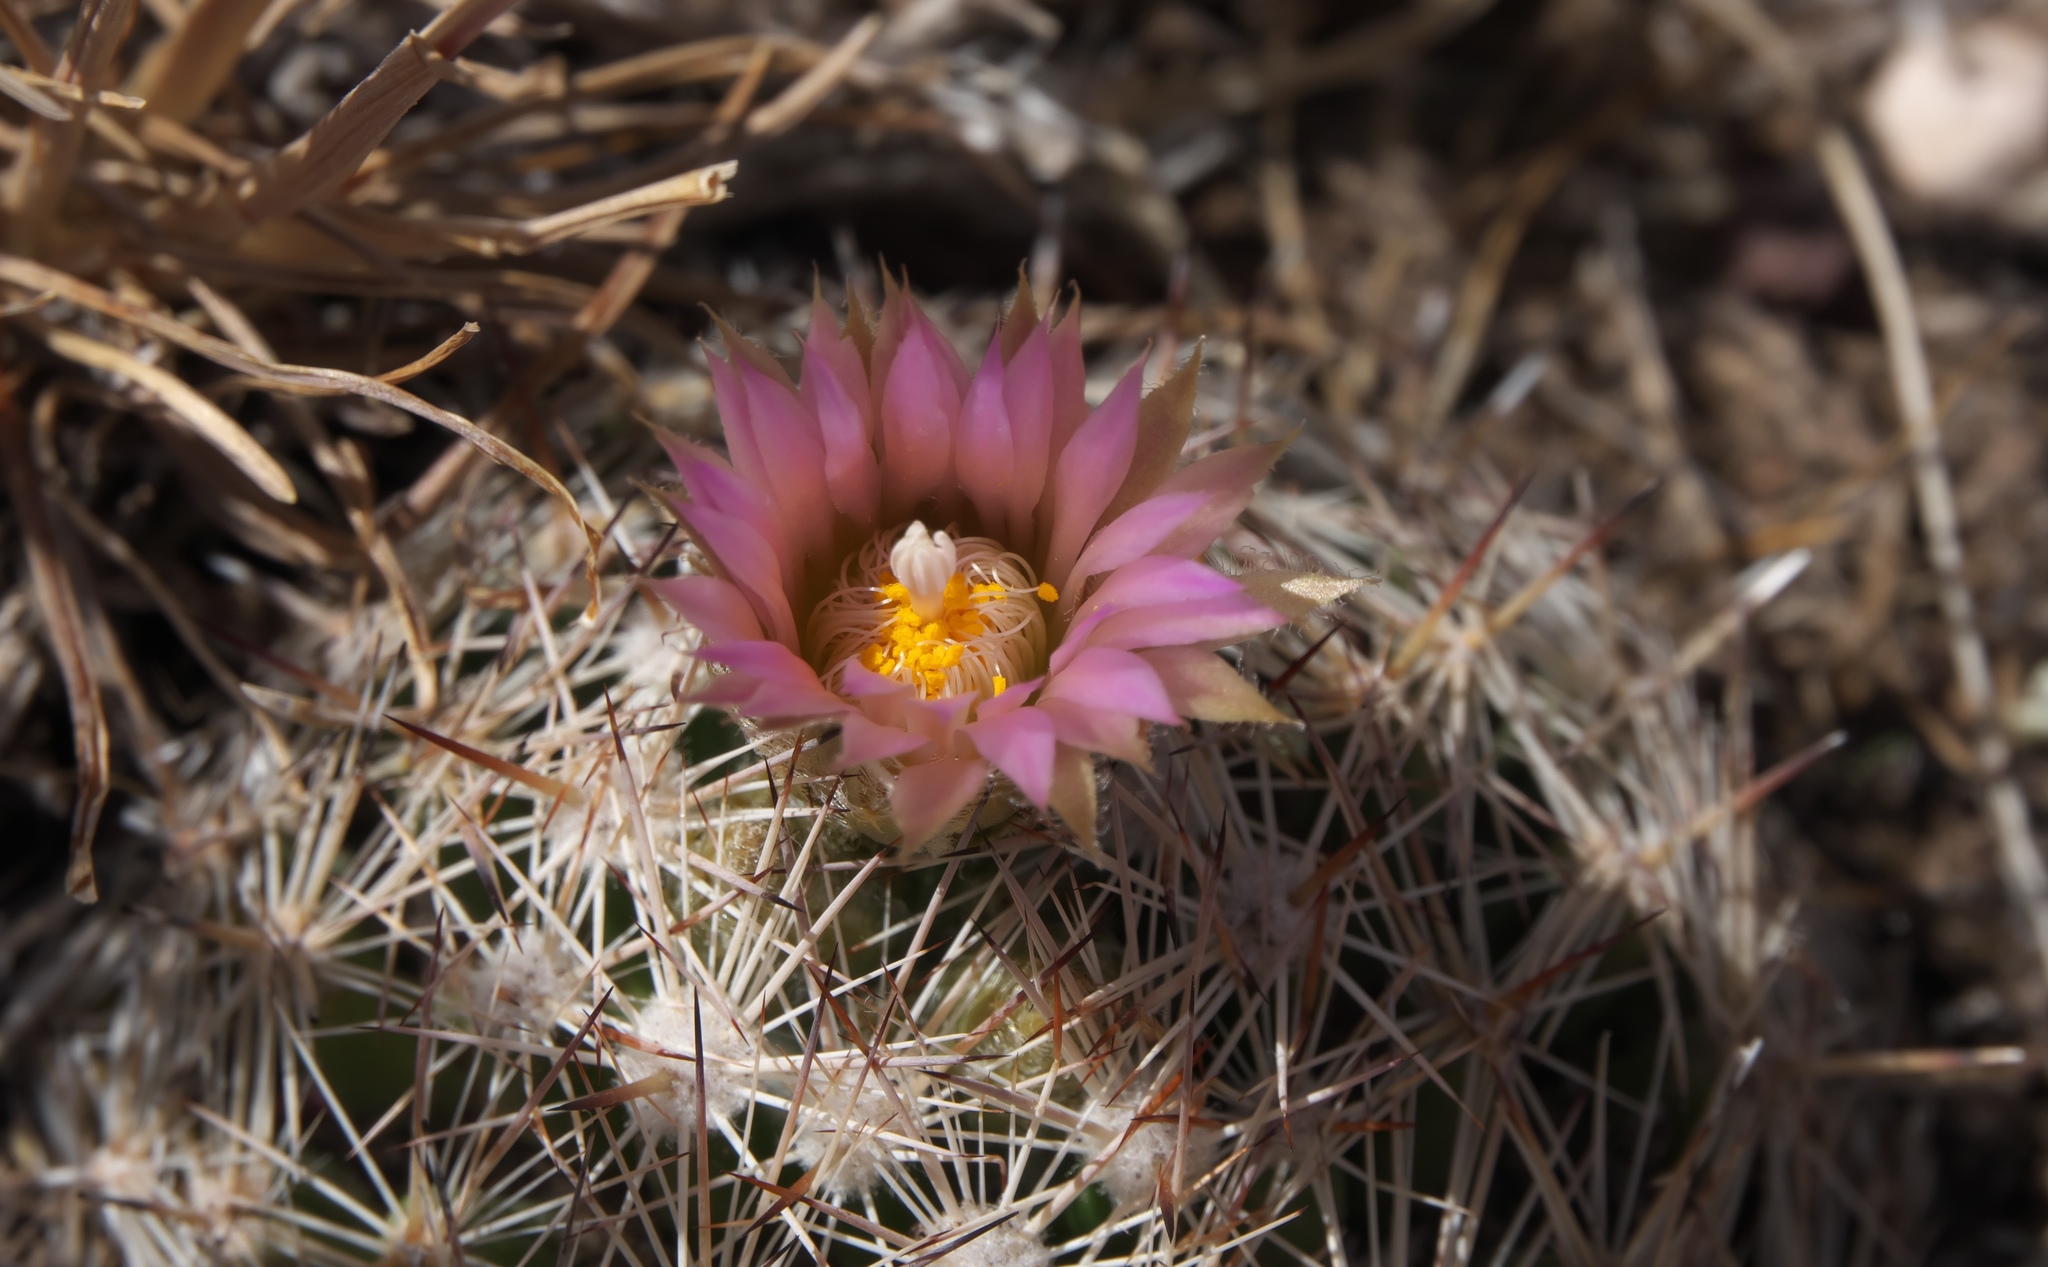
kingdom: Plantae
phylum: Tracheophyta
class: Magnoliopsida
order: Caryophyllales
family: Cactaceae
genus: Pelecyphora
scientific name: Pelecyphora vivipara
